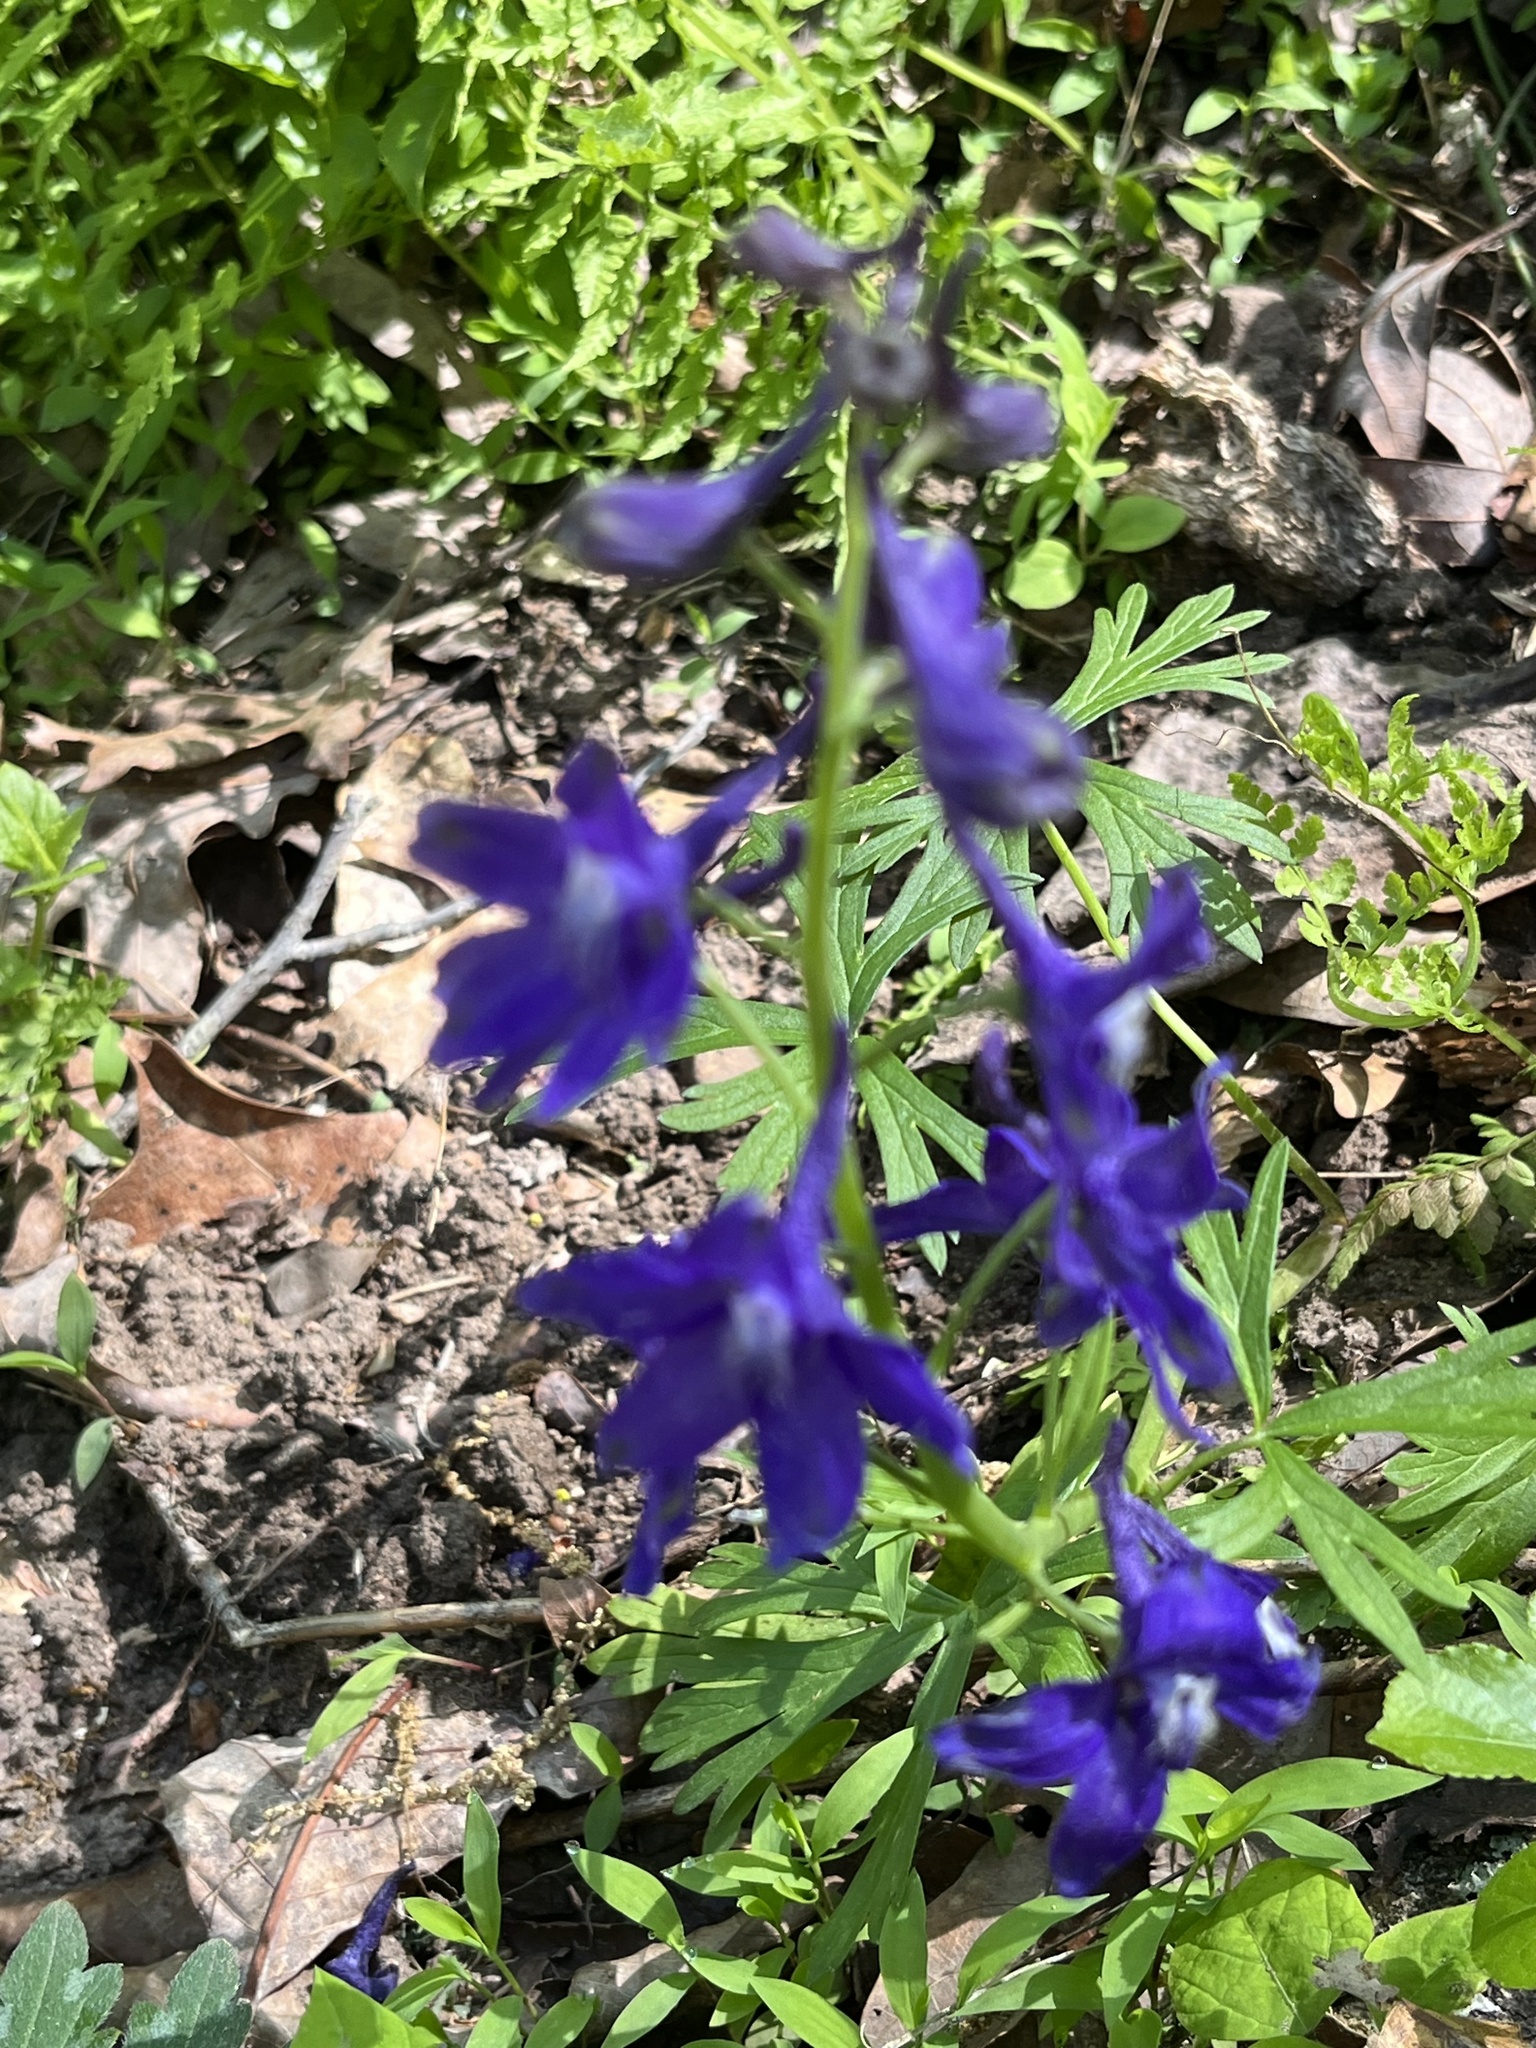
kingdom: Plantae
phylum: Tracheophyta
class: Magnoliopsida
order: Ranunculales
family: Ranunculaceae
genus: Delphinium
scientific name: Delphinium tricorne
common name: Dwarf larkspur
